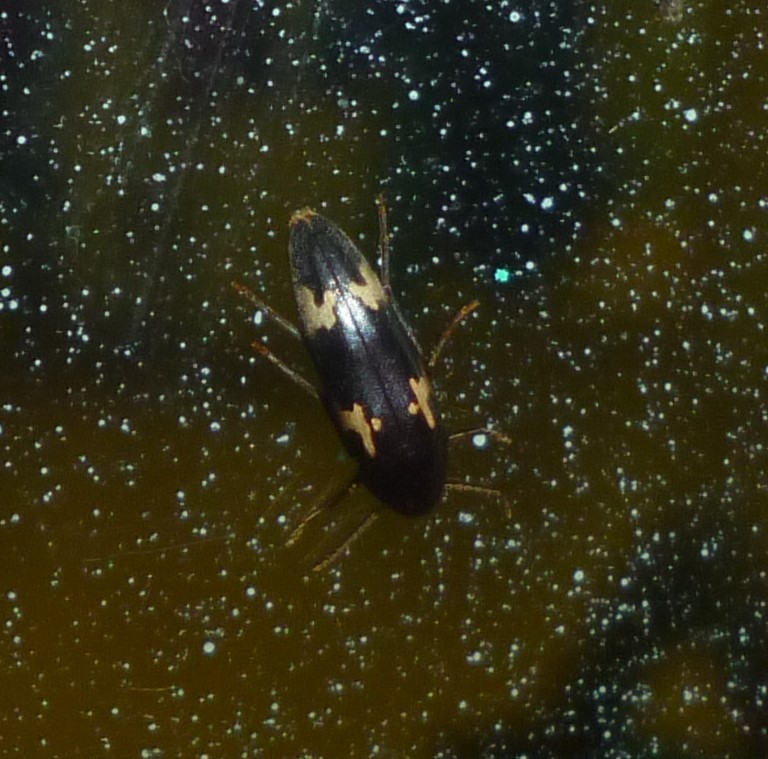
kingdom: Animalia
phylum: Arthropoda
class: Insecta
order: Coleoptera
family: Melandryidae
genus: Dircaea
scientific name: Dircaea liturata
